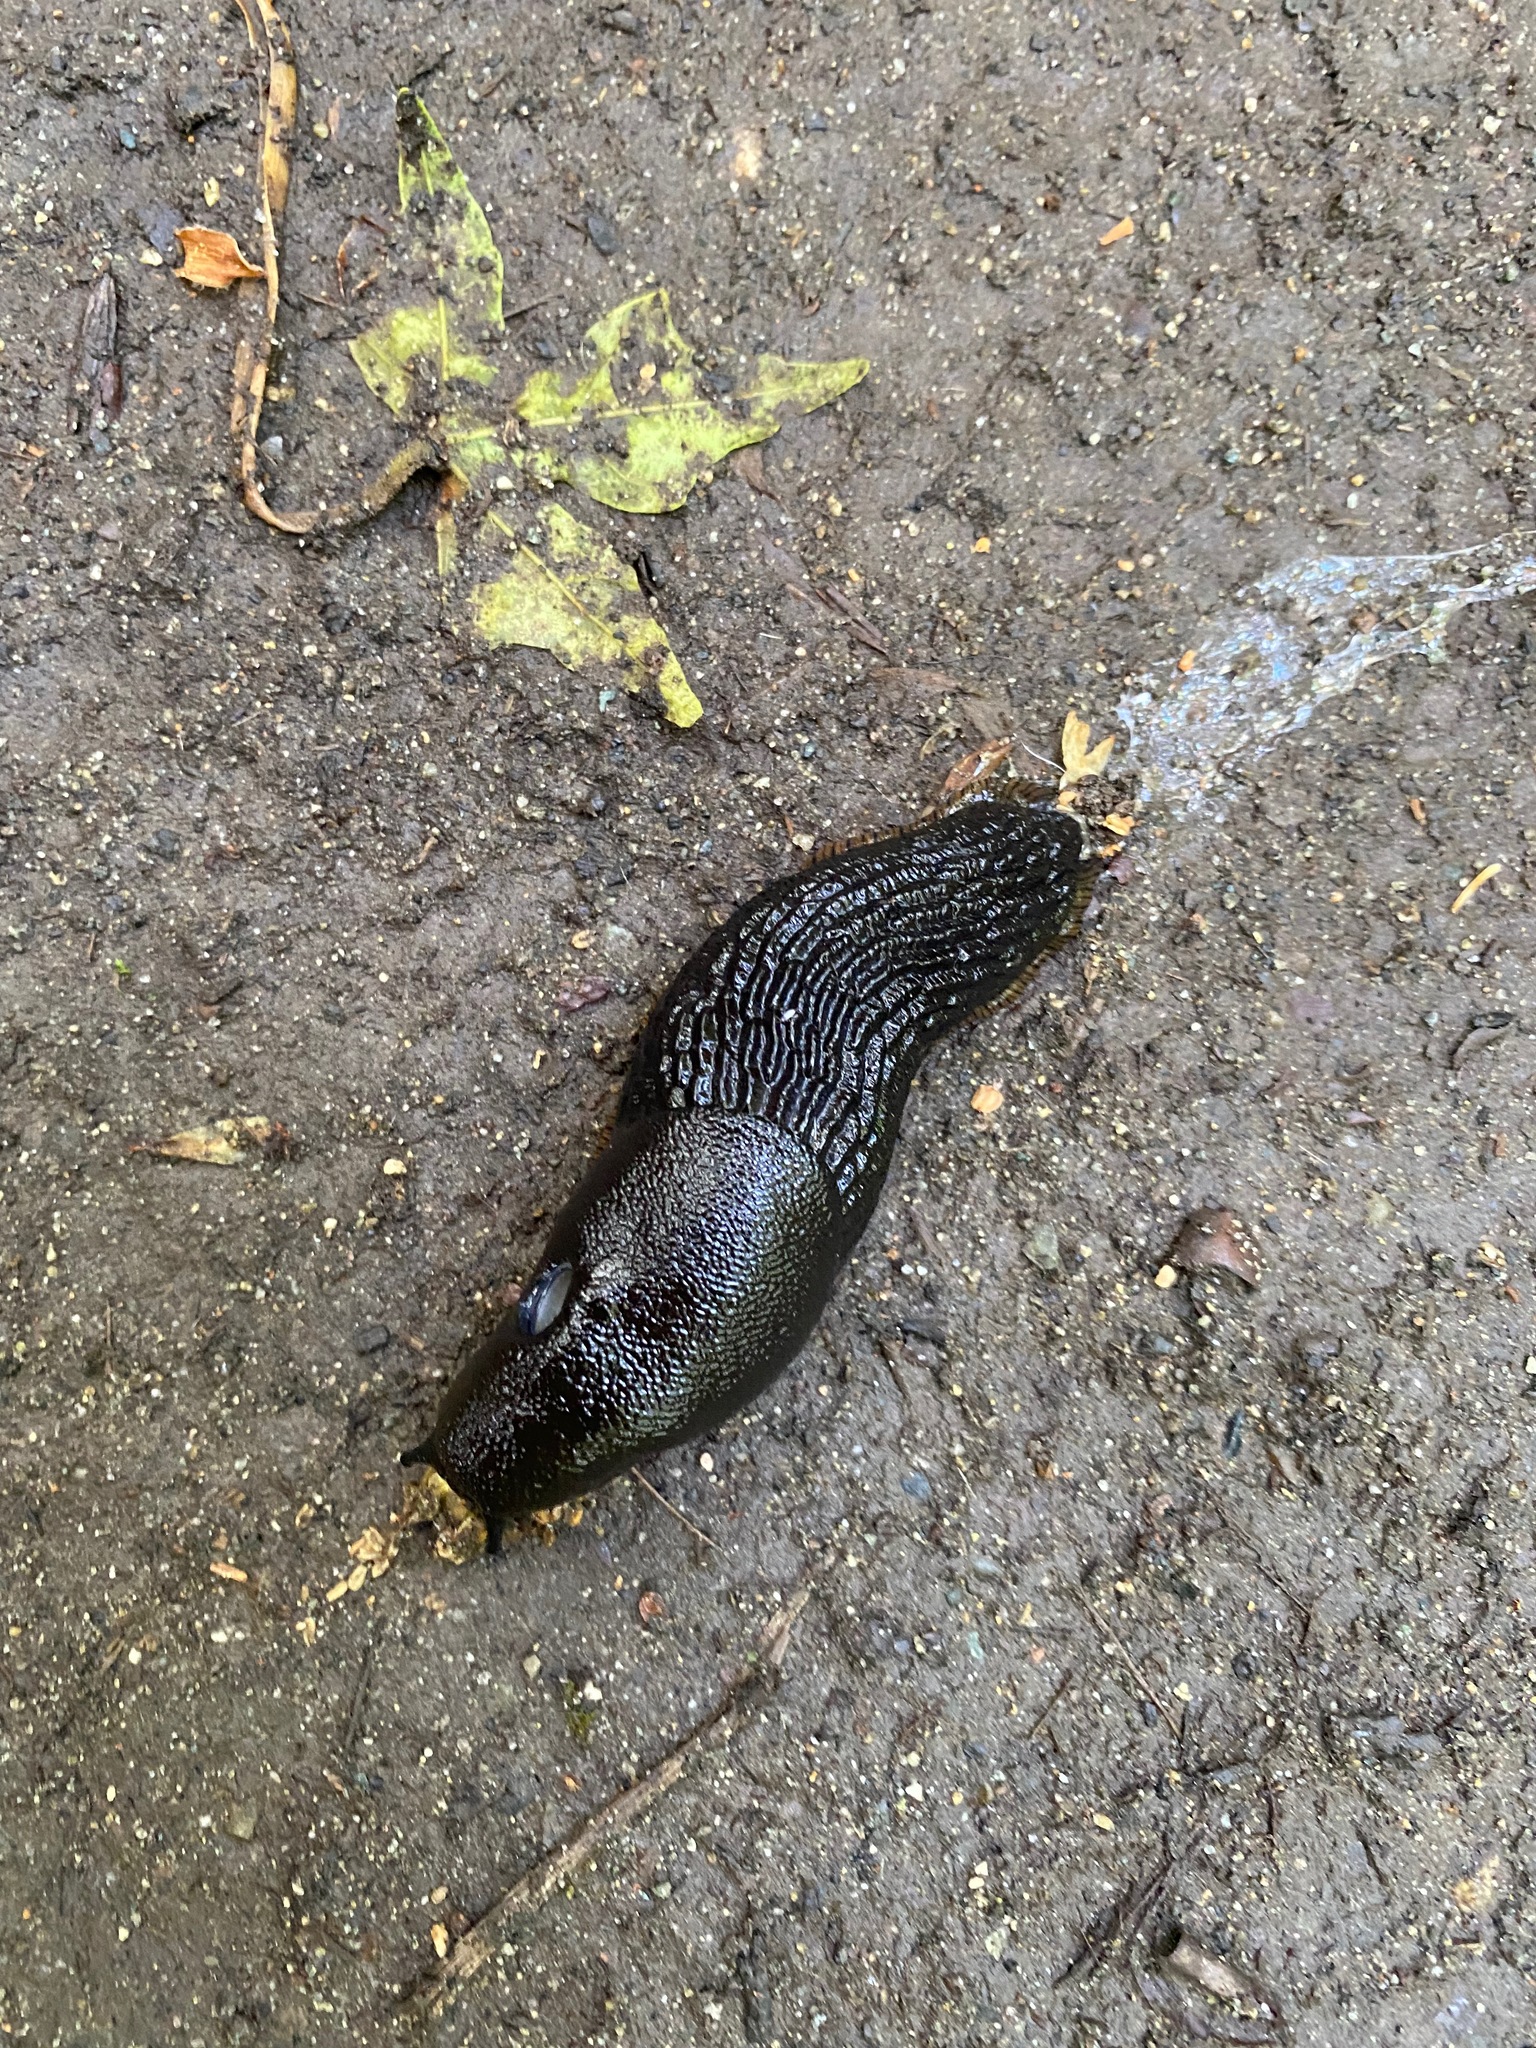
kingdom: Animalia
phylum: Mollusca
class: Gastropoda
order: Stylommatophora
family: Arionidae
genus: Arion
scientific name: Arion
